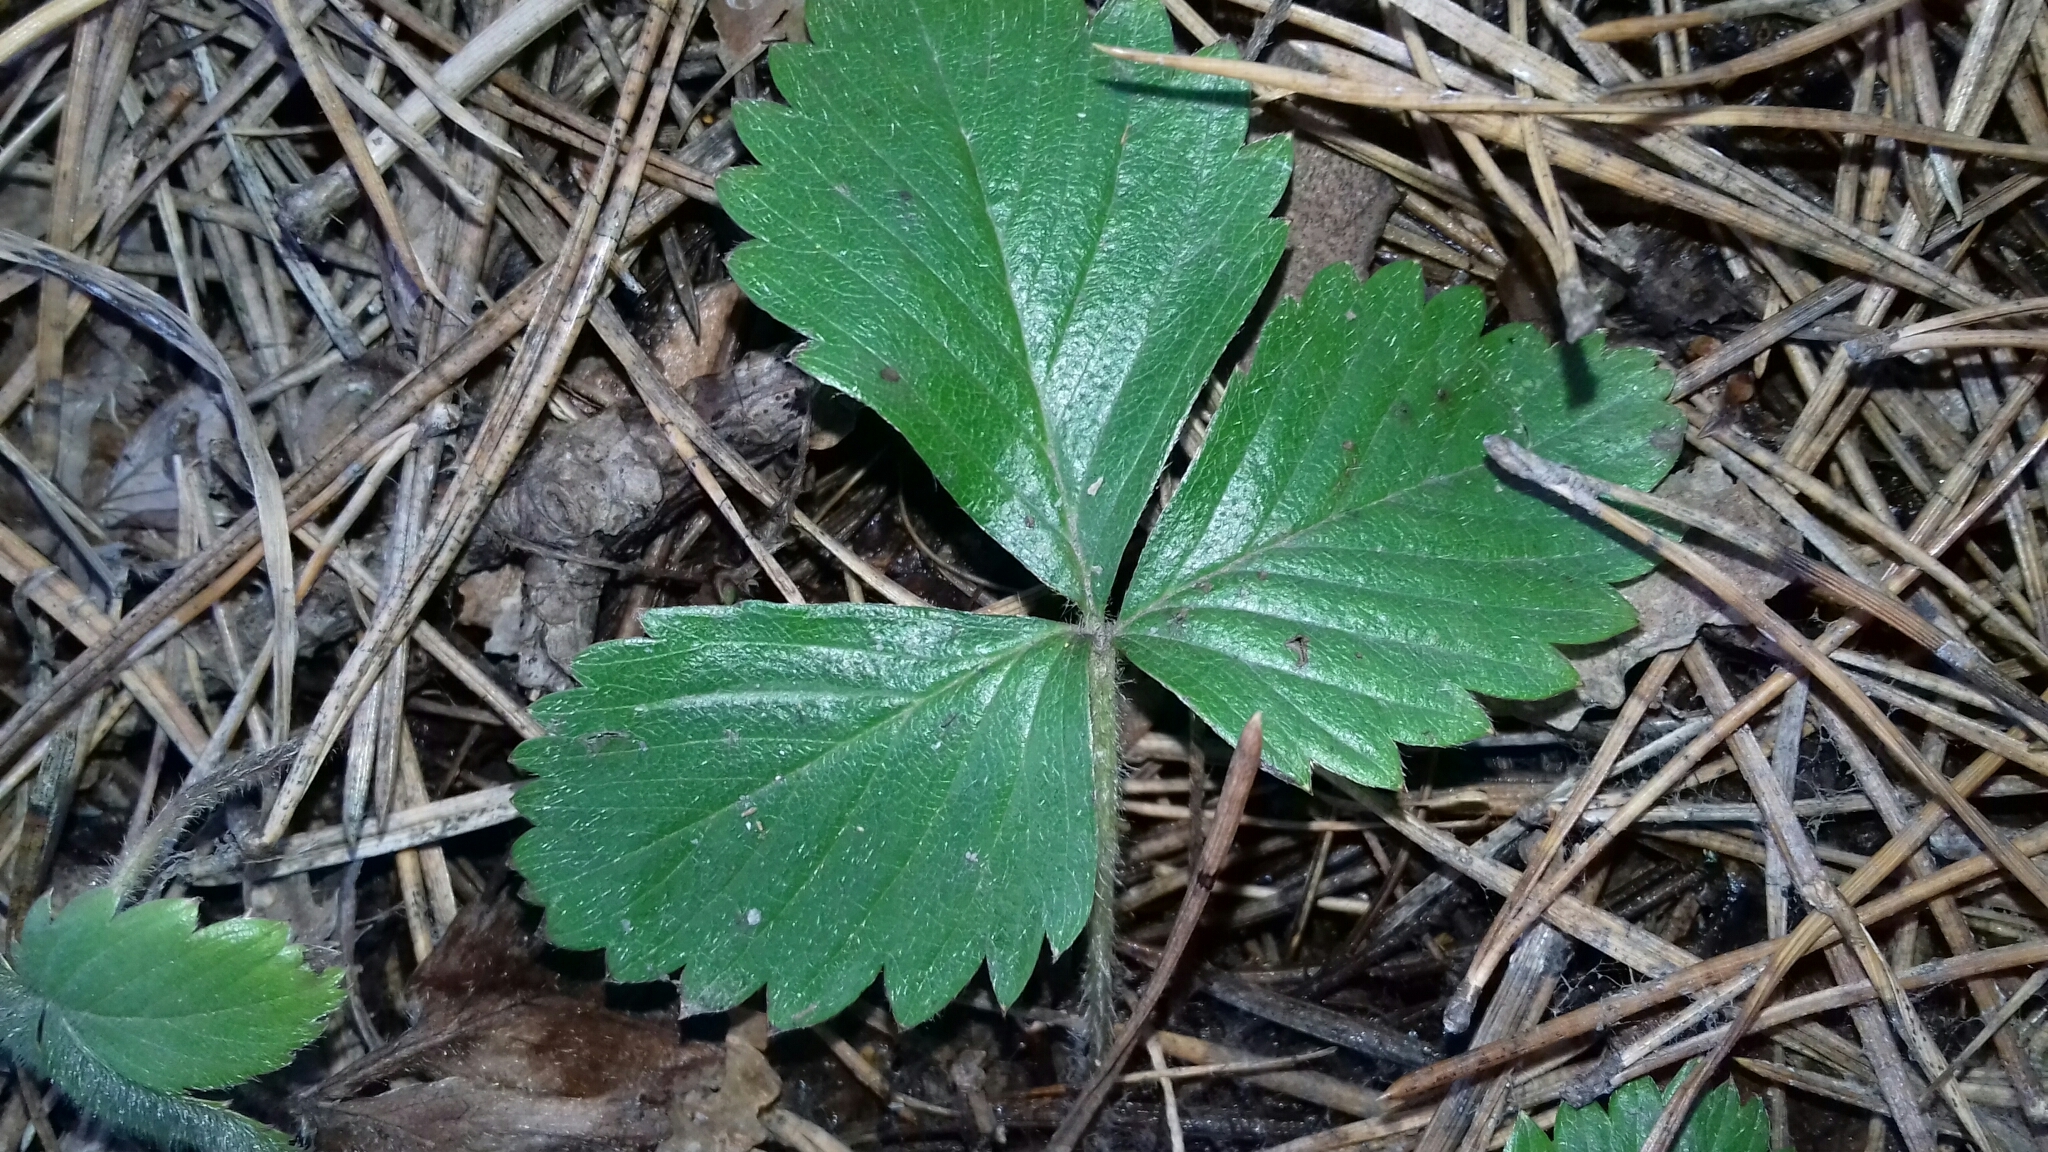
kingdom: Plantae
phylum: Tracheophyta
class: Magnoliopsida
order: Rosales
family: Rosaceae
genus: Fragaria
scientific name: Fragaria viridis
